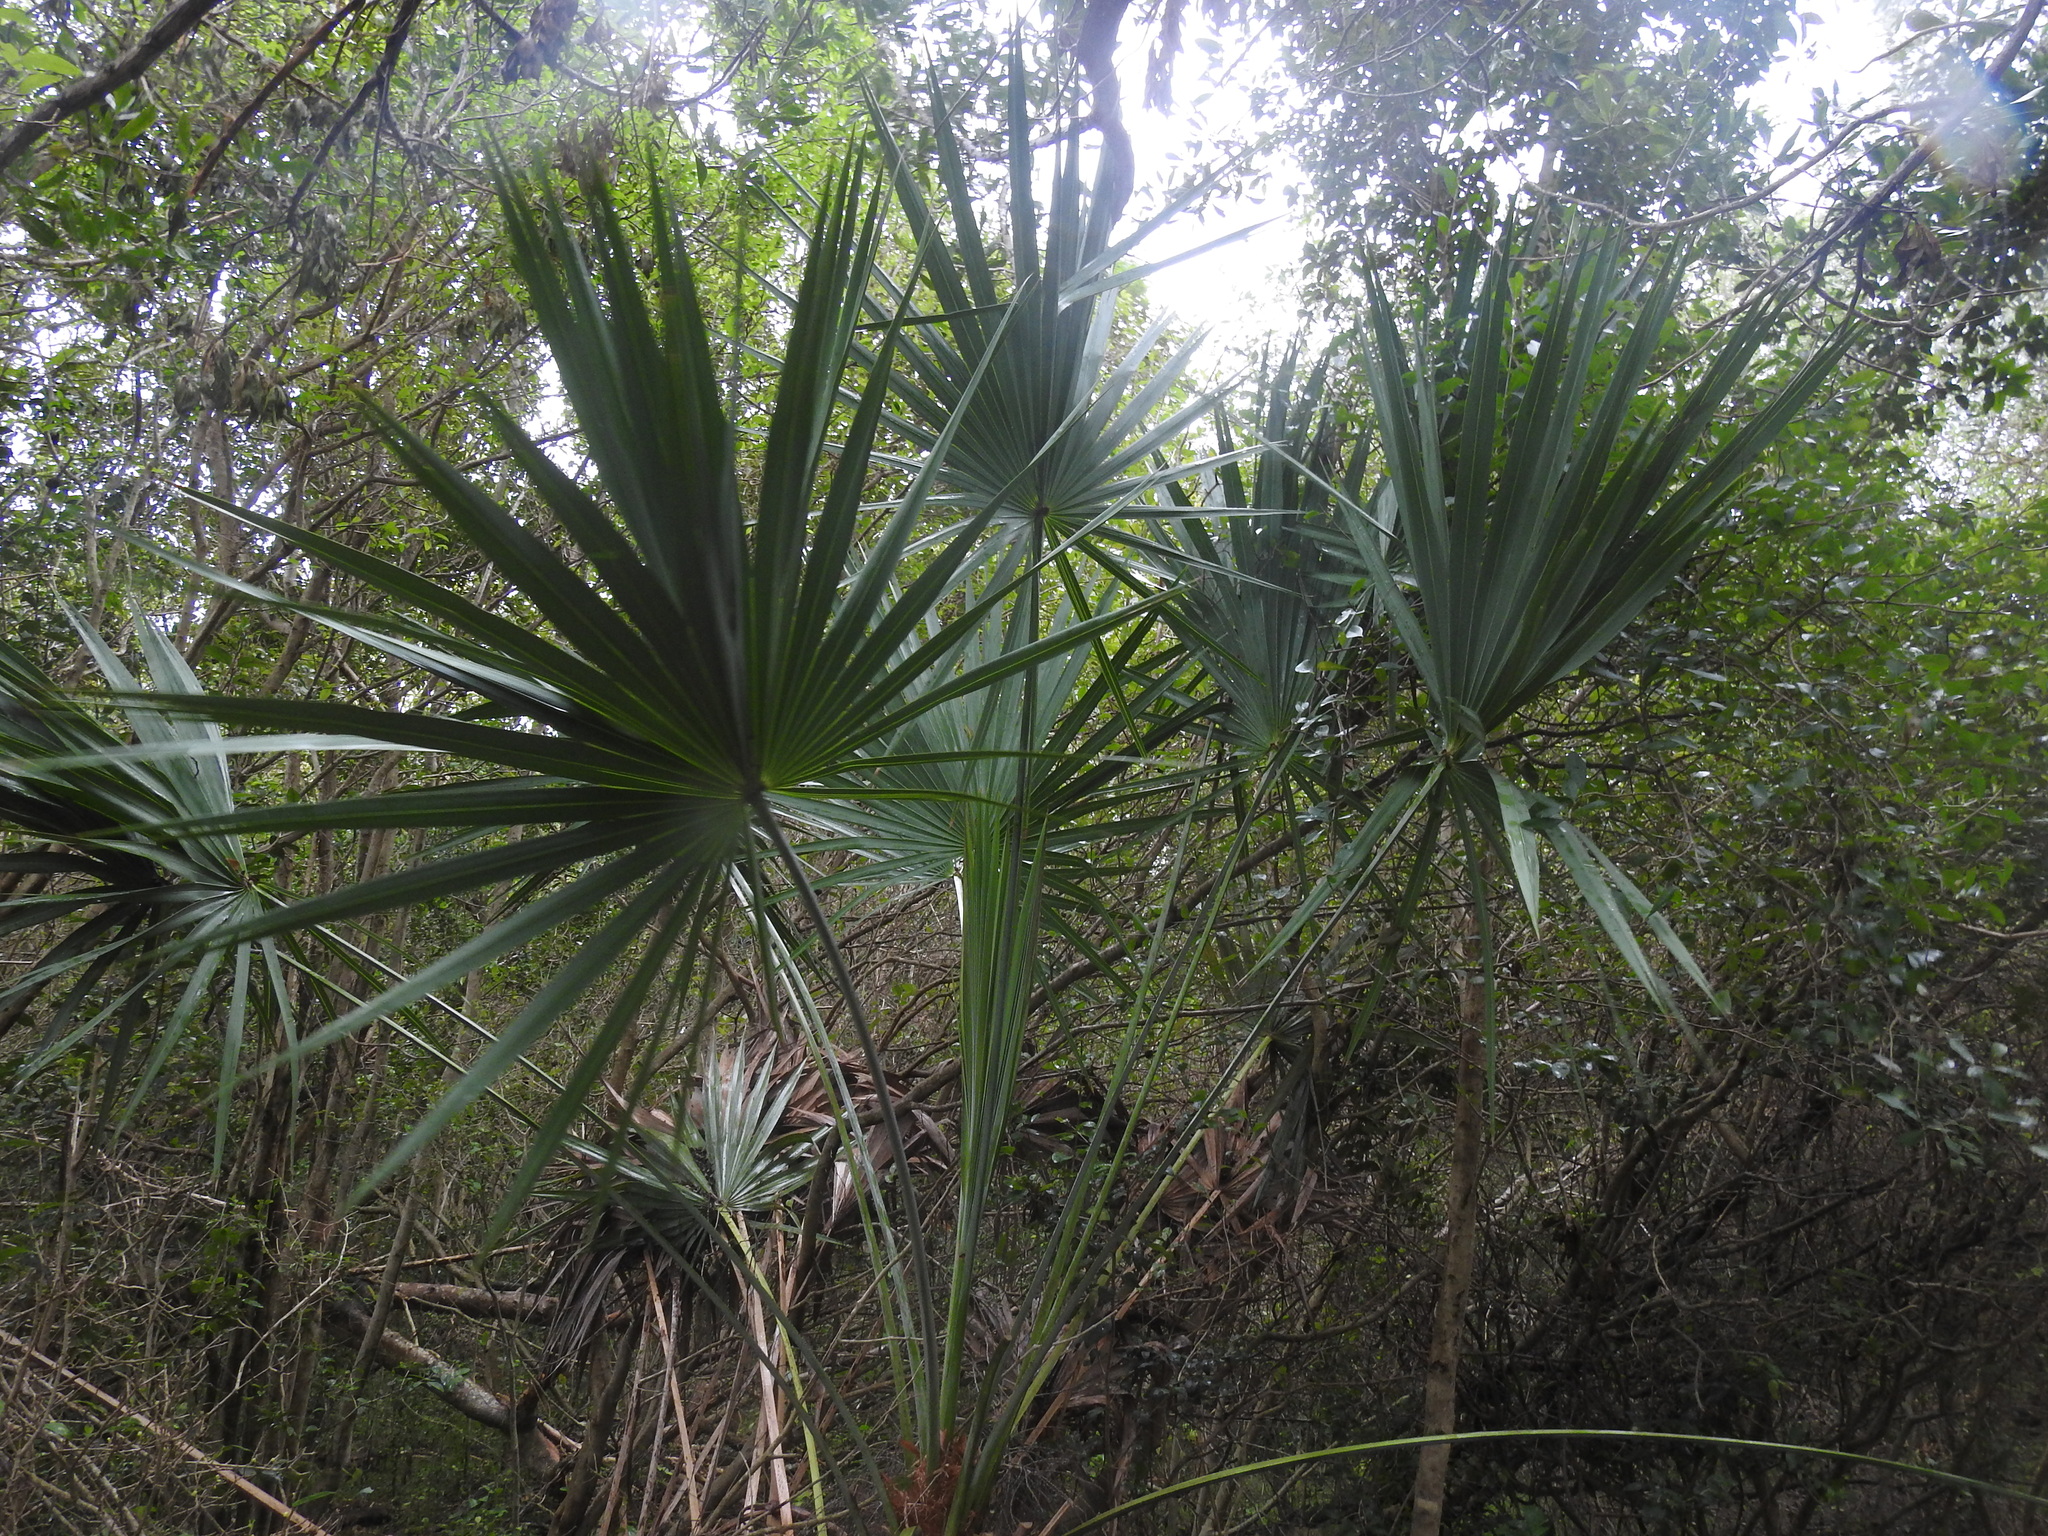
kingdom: Plantae
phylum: Tracheophyta
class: Liliopsida
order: Arecales
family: Arecaceae
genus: Sabal
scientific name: Sabal palmetto
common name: Blue palmetto
